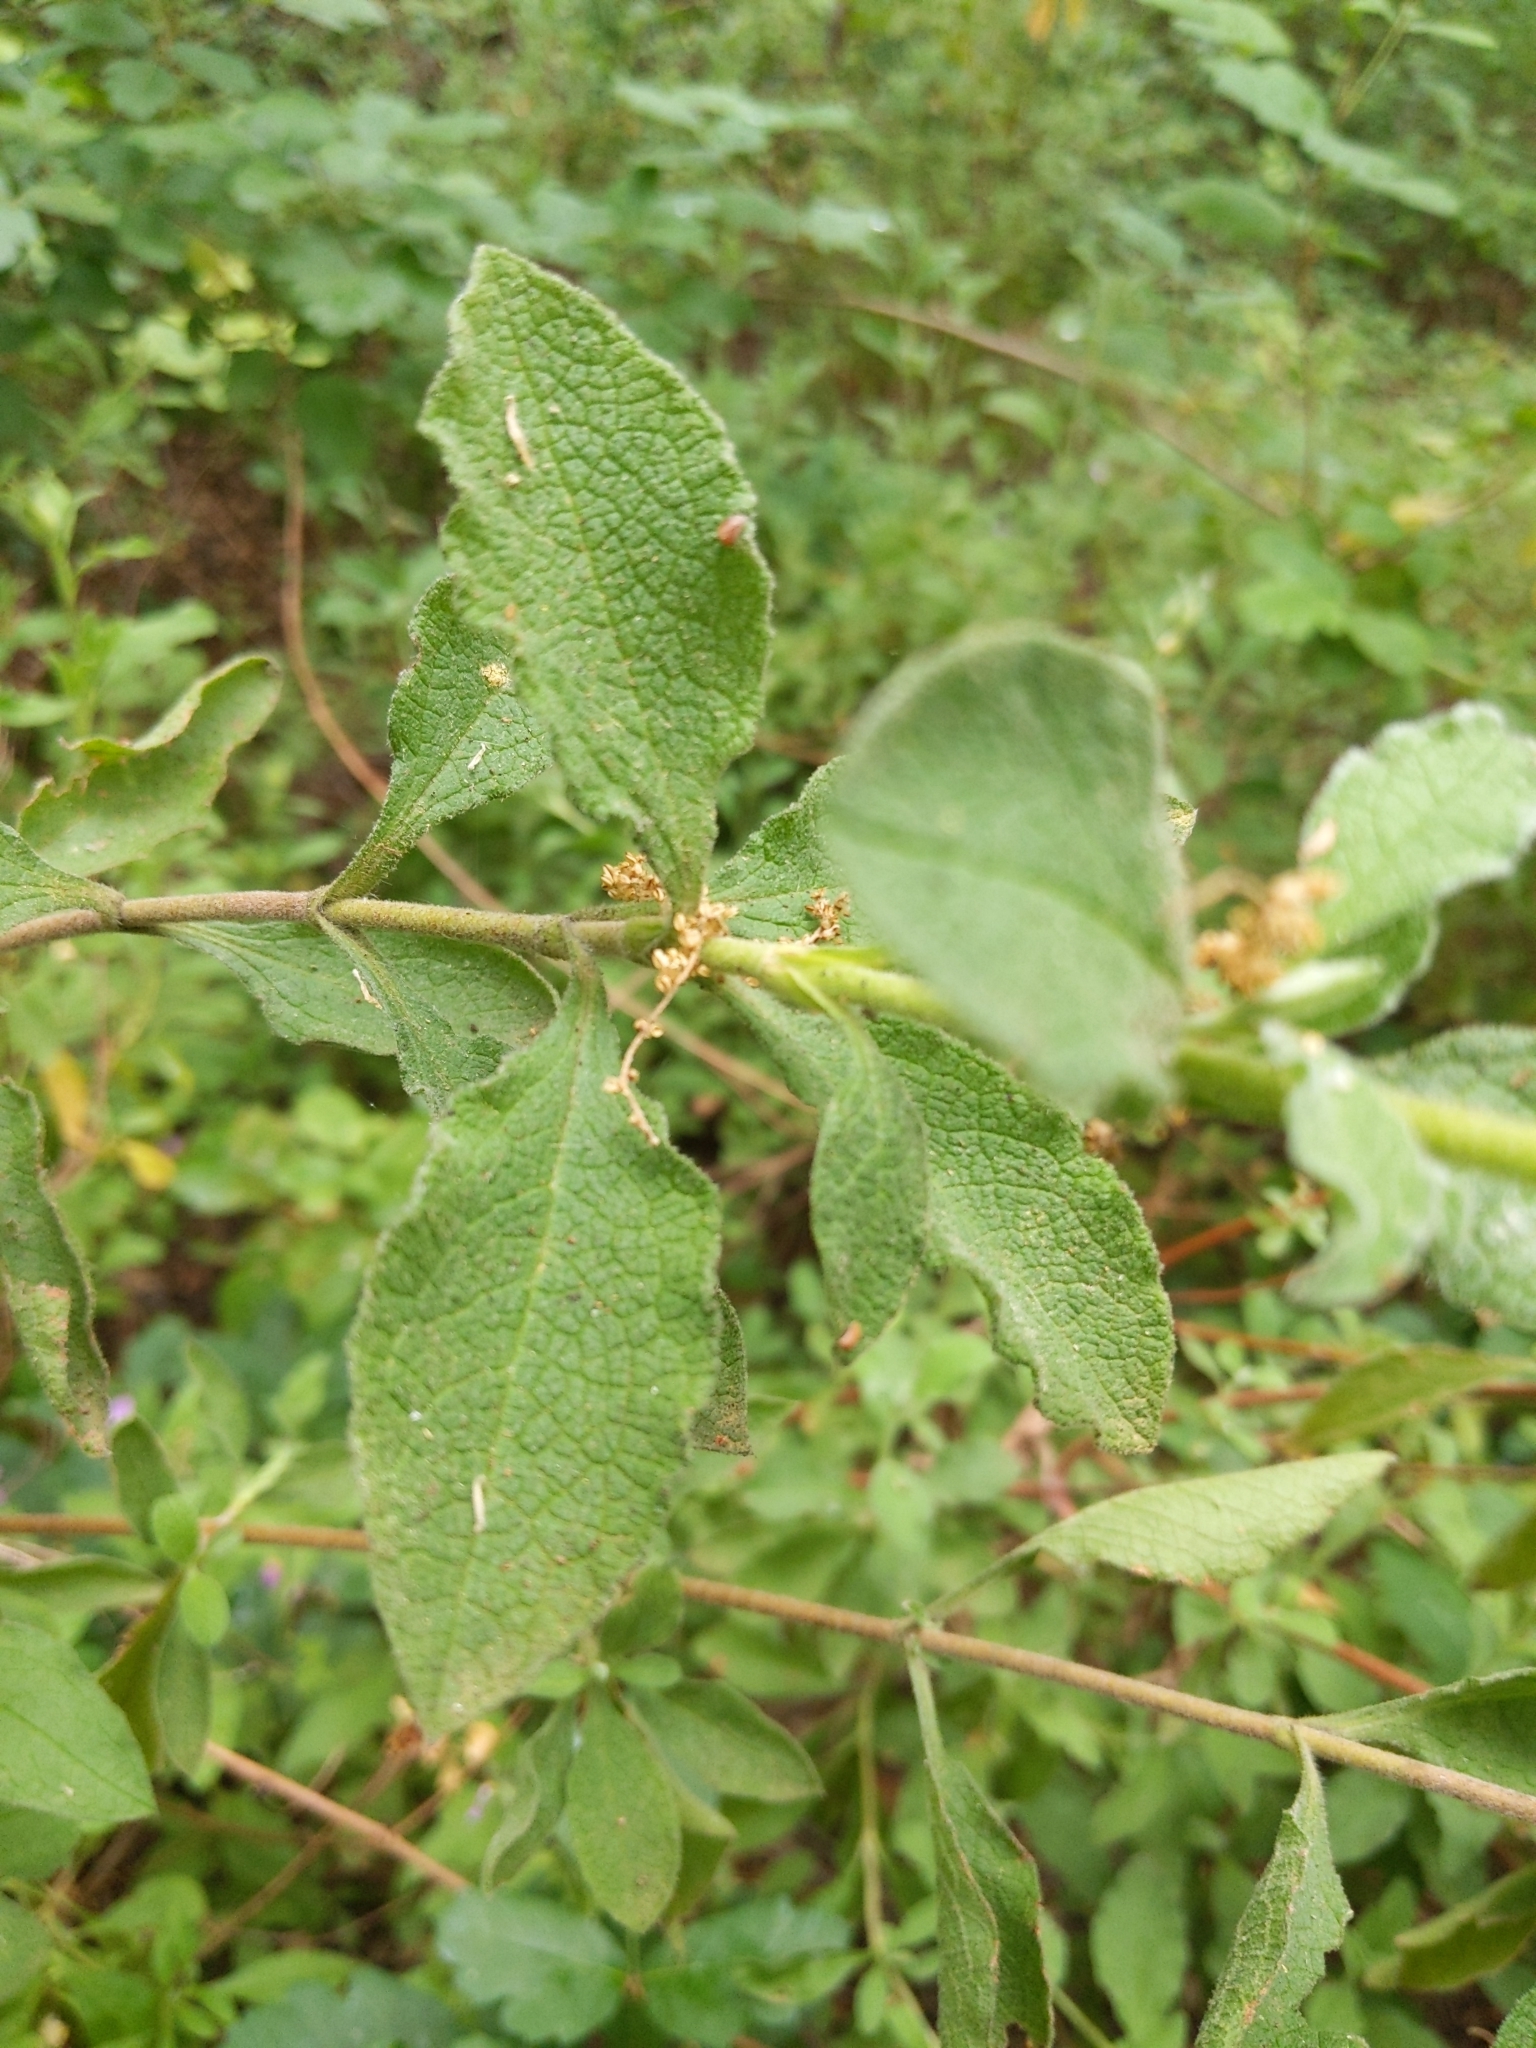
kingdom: Plantae
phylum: Tracheophyta
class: Magnoliopsida
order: Malvales
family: Cistaceae
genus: Cistus
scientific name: Cistus creticus
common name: Cretan rockrose
